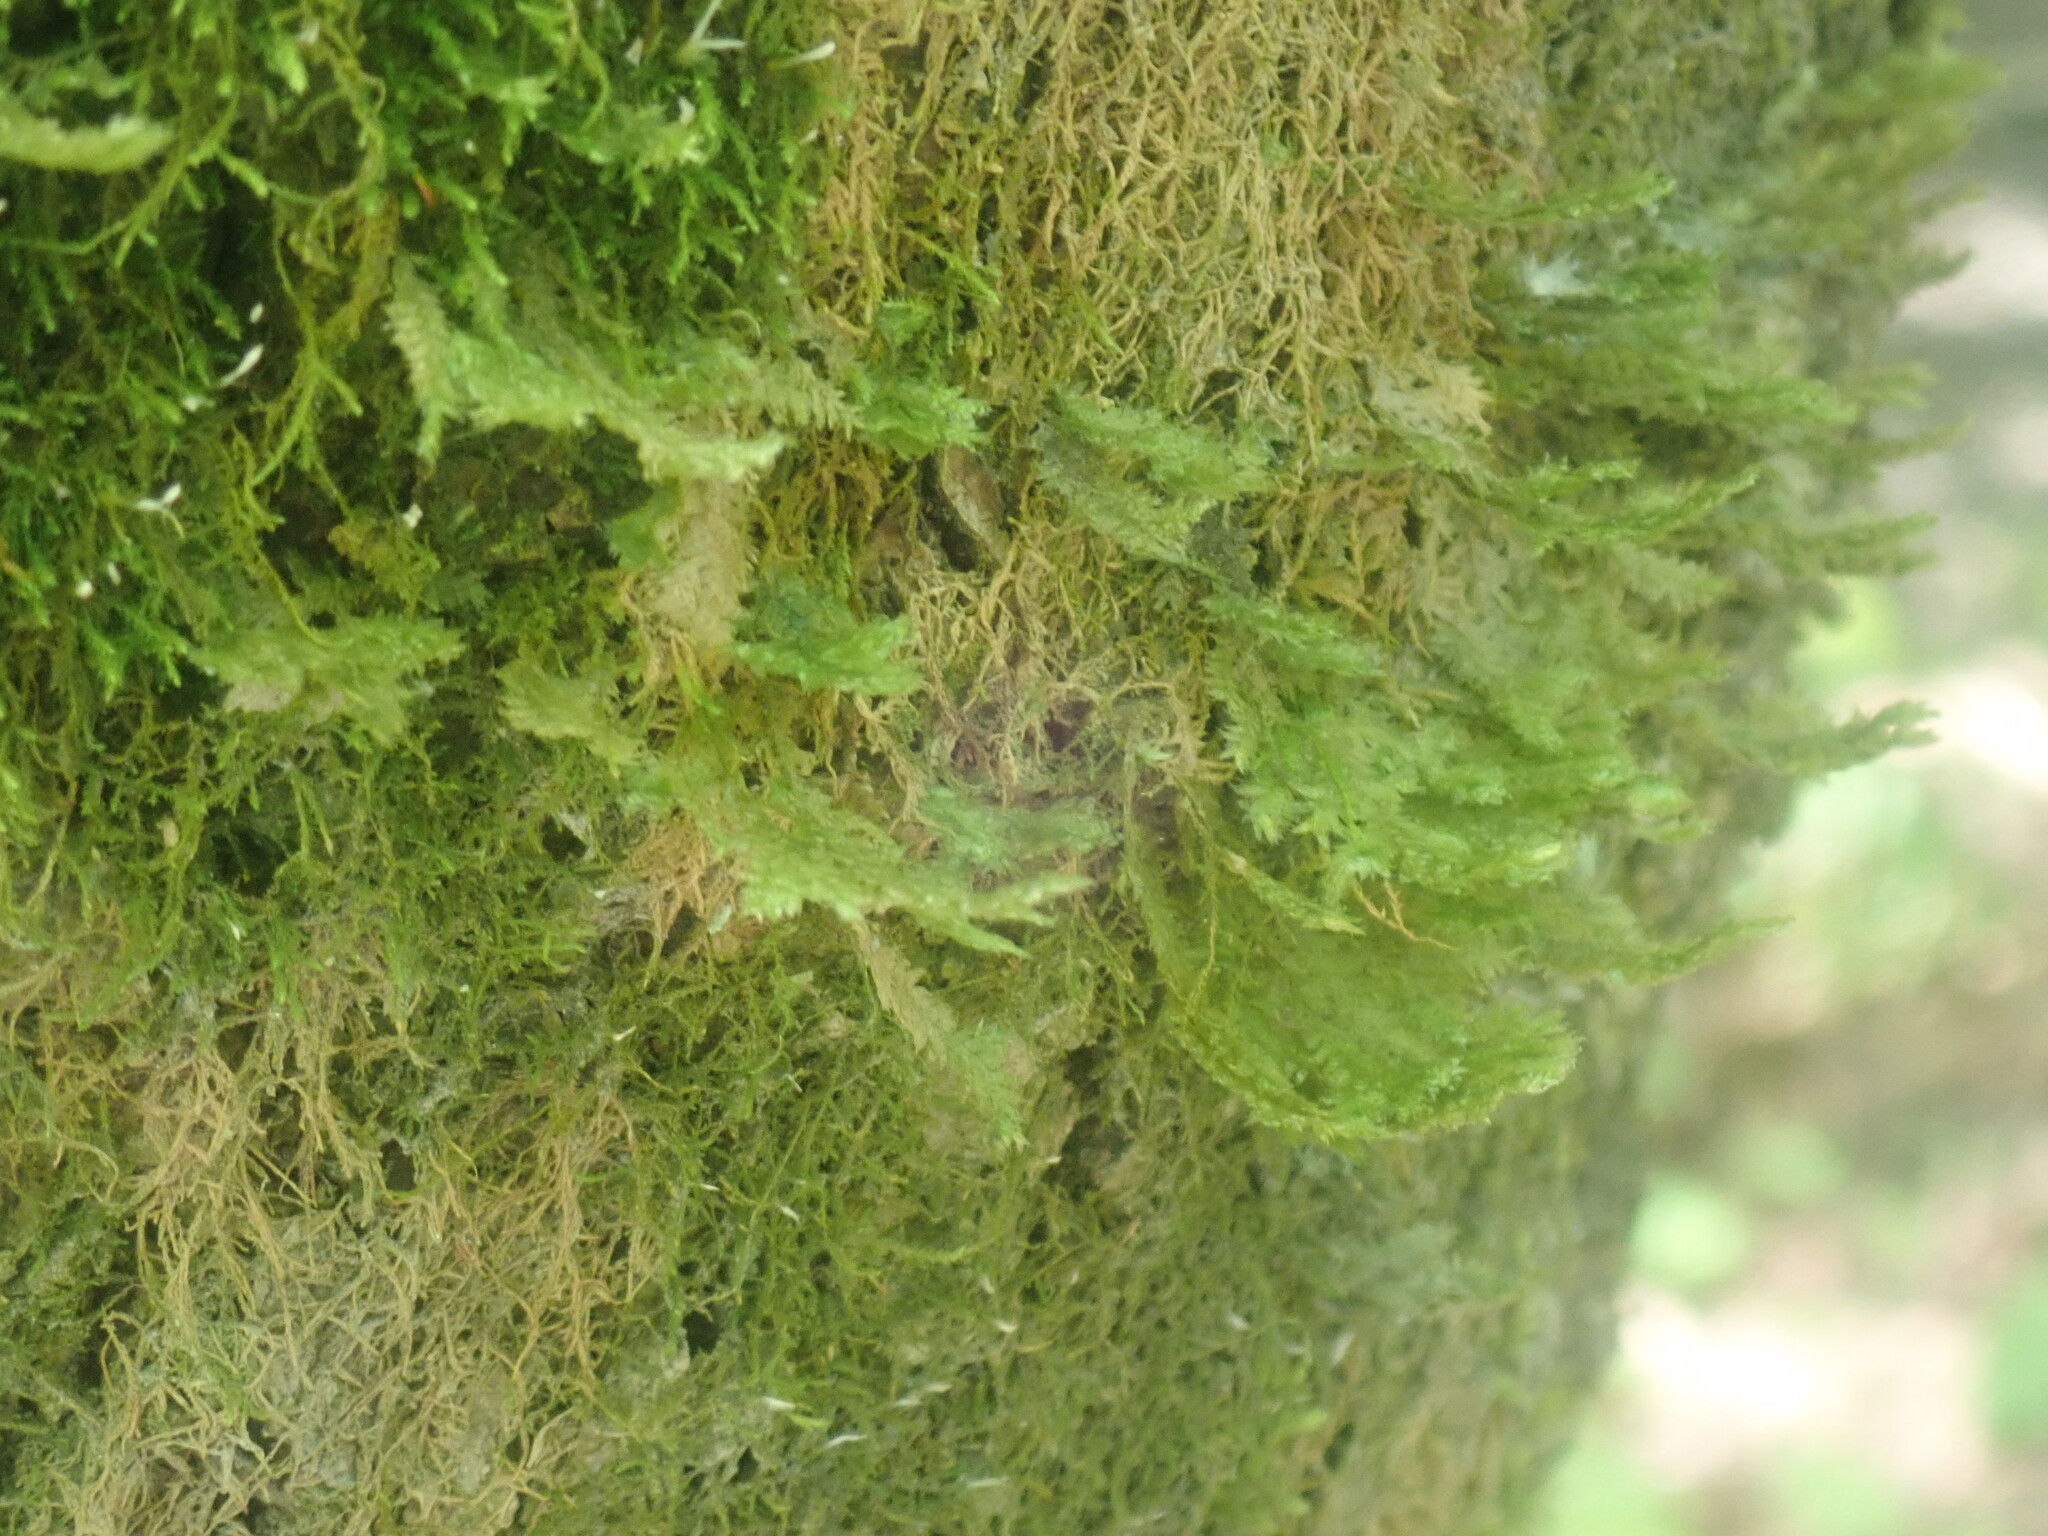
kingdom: Plantae
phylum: Bryophyta
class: Bryopsida
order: Hypnales
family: Neckeraceae
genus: Neckera
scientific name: Neckera pennata
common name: Feathery neckera
